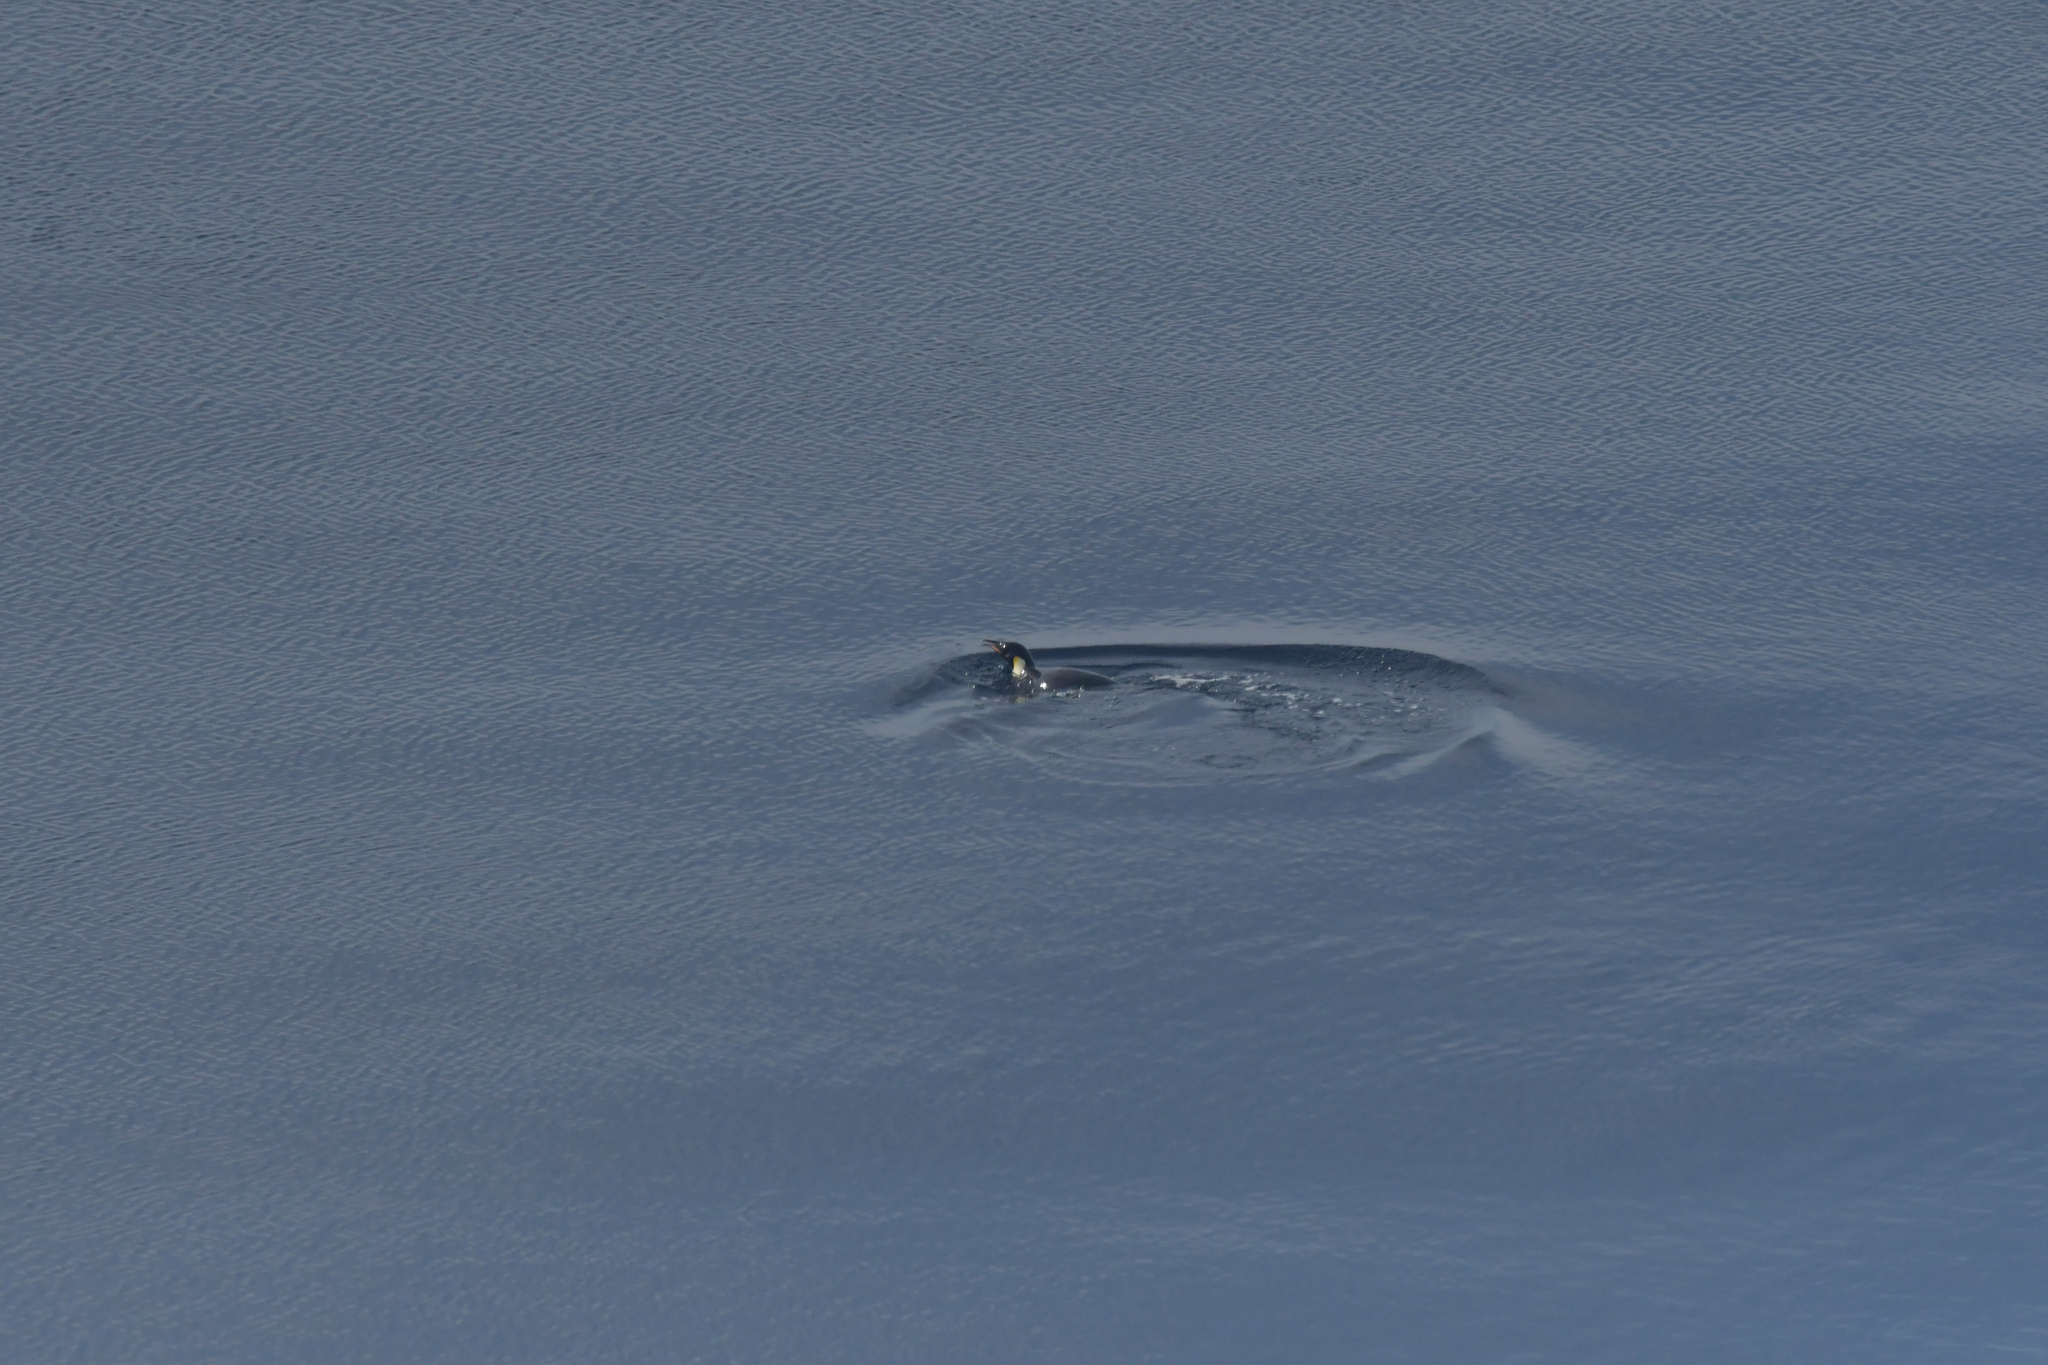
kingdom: Animalia
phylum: Chordata
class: Aves
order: Sphenisciformes
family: Spheniscidae
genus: Aptenodytes
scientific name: Aptenodytes forsteri
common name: Emperor penguin
